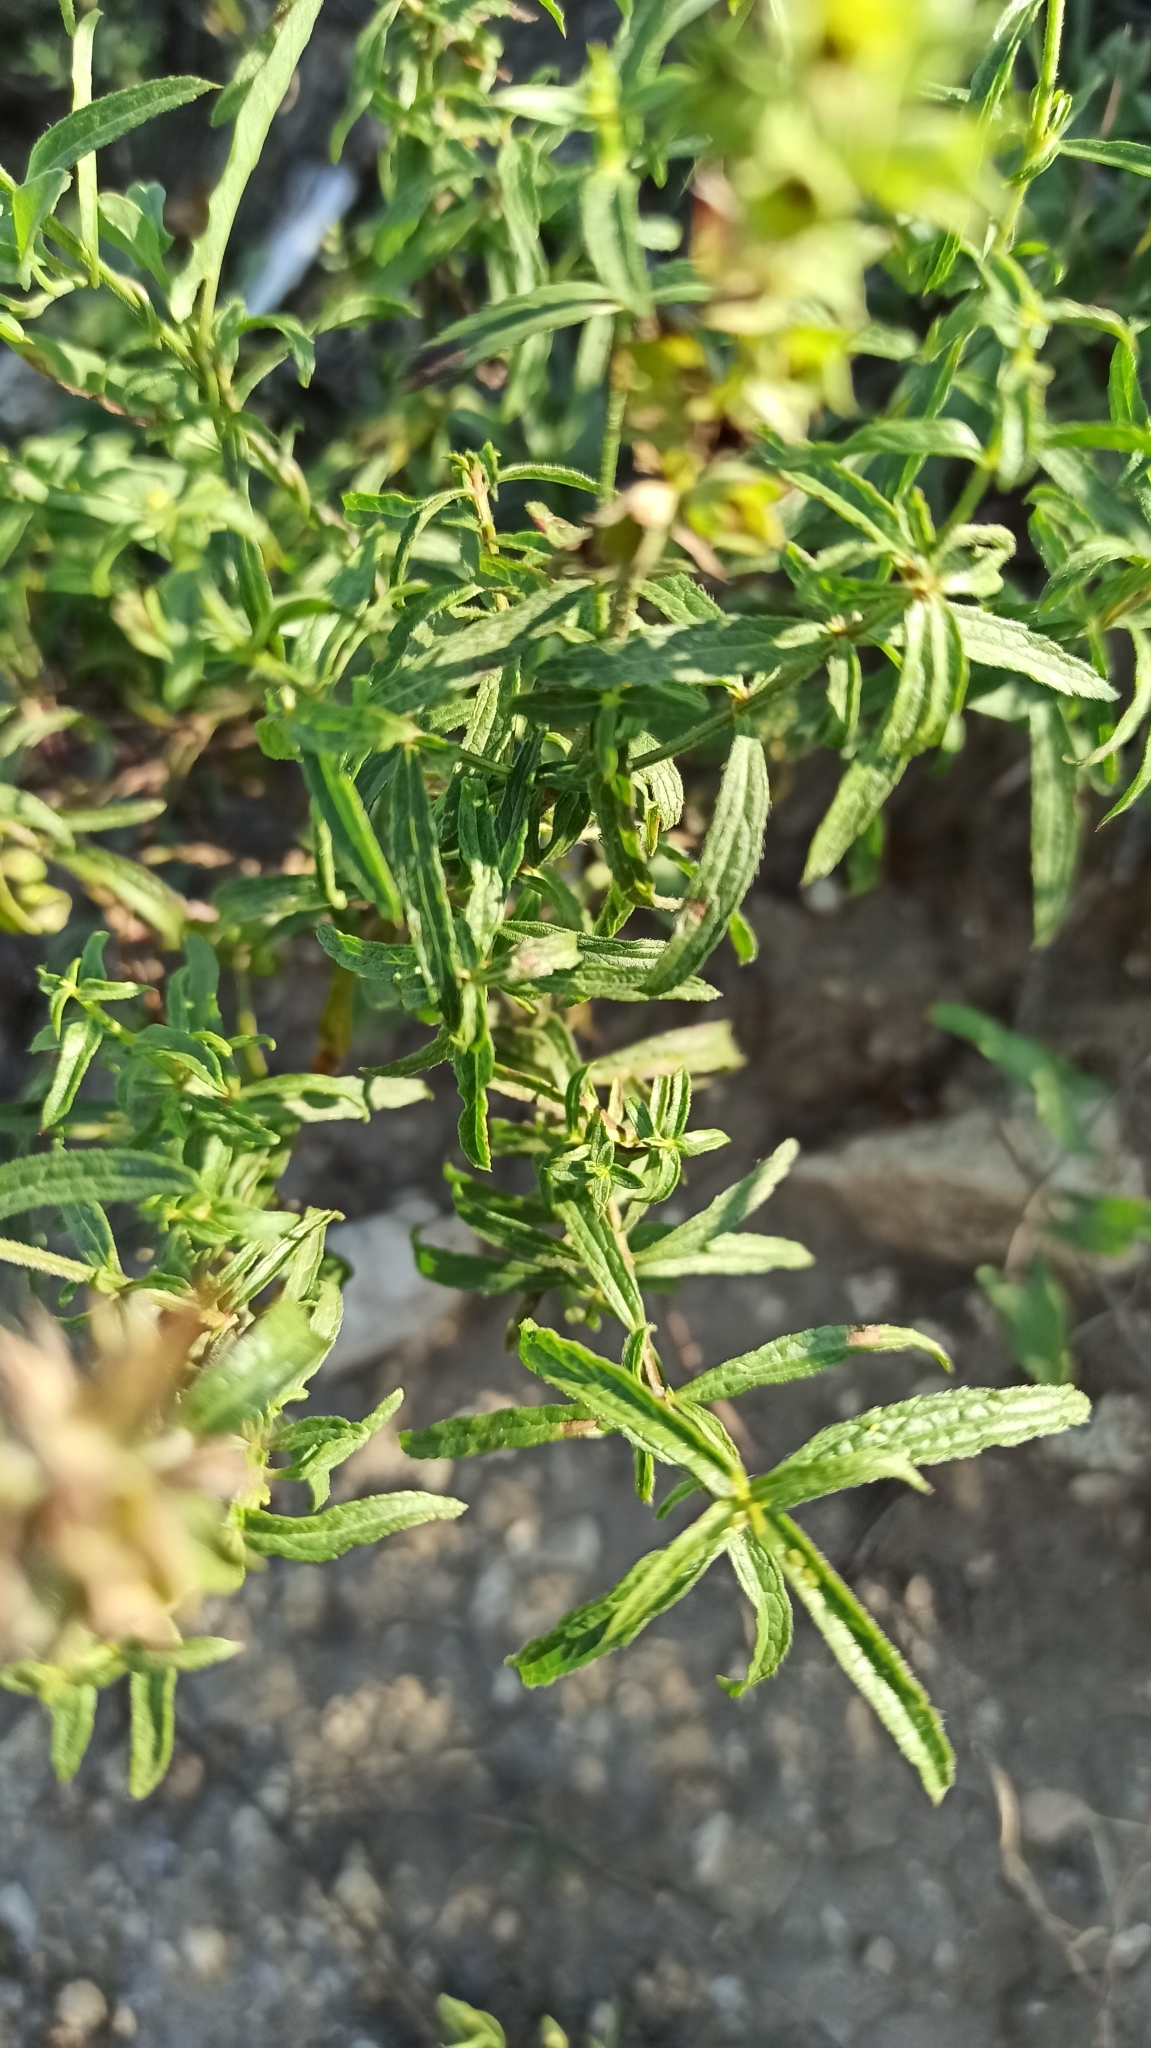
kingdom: Plantae
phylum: Tracheophyta
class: Magnoliopsida
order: Lamiales
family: Lamiaceae
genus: Stachys
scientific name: Stachys recta
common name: Perennial yellow-woundwort
